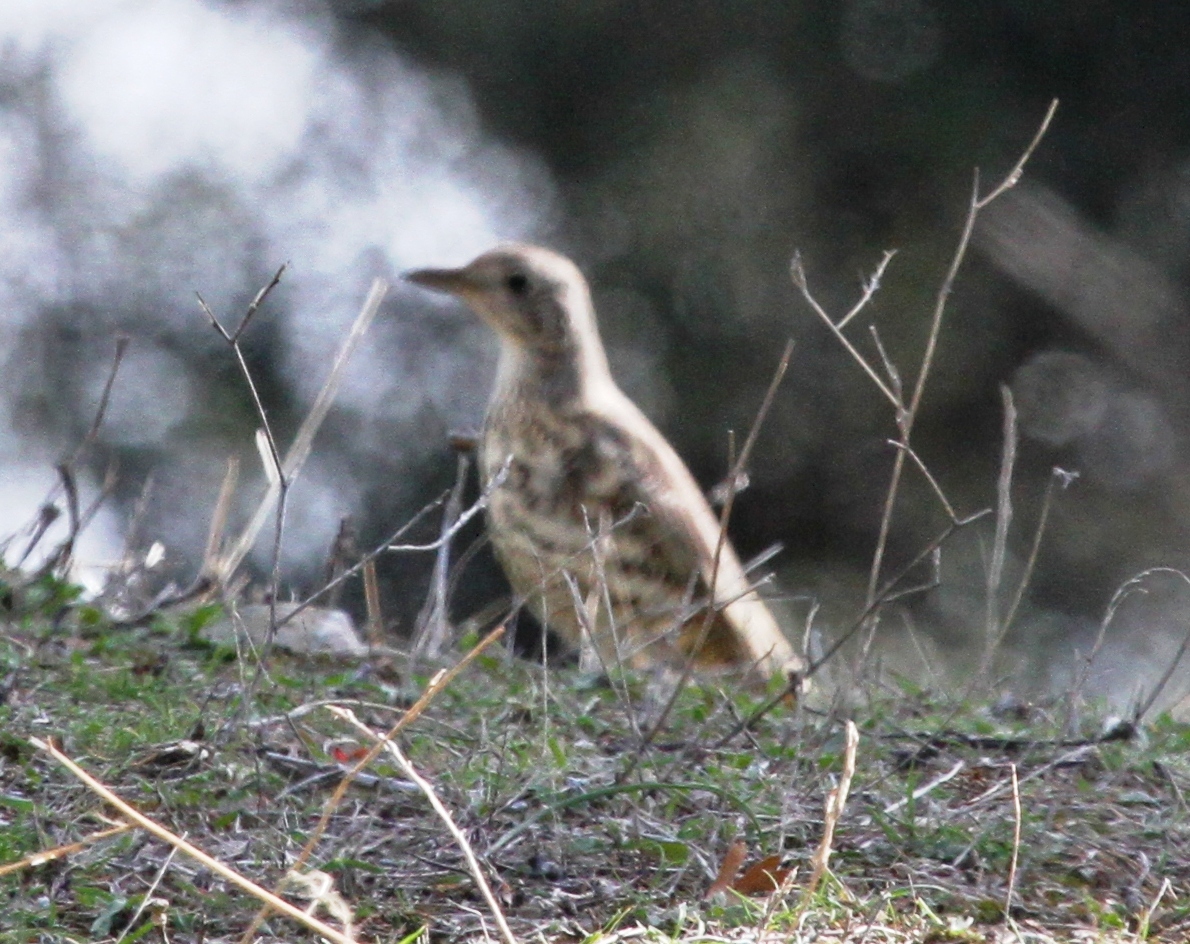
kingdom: Animalia
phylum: Chordata
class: Aves
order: Passeriformes
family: Turdidae
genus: Turdus
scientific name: Turdus viscivorus
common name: Mistle thrush
